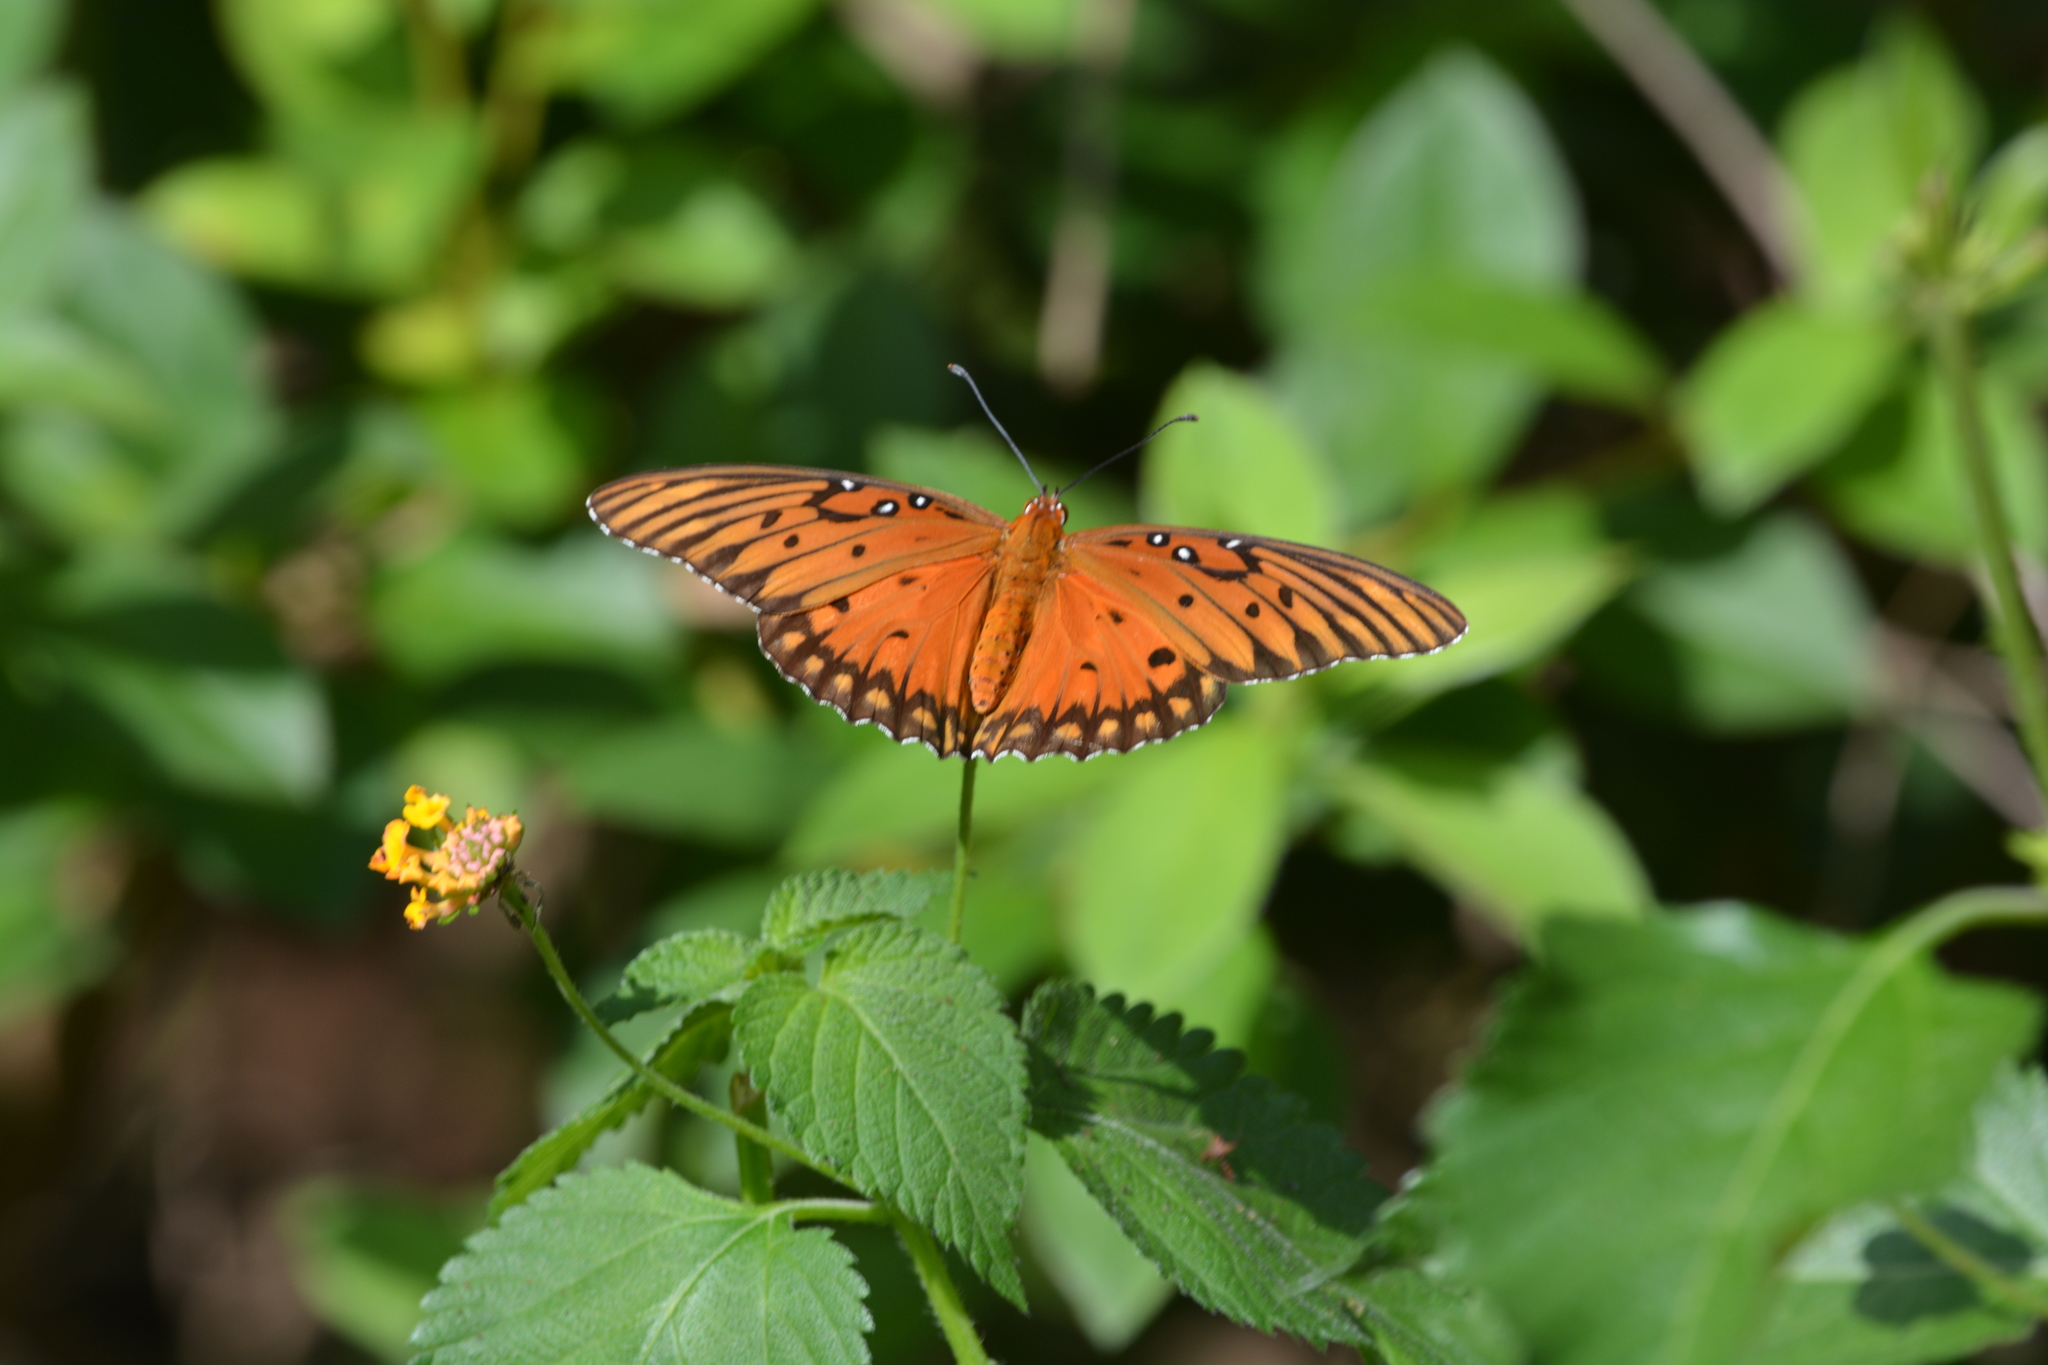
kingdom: Animalia
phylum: Arthropoda
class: Insecta
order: Lepidoptera
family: Nymphalidae
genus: Dione
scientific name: Dione vanillae
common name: Gulf fritillary
